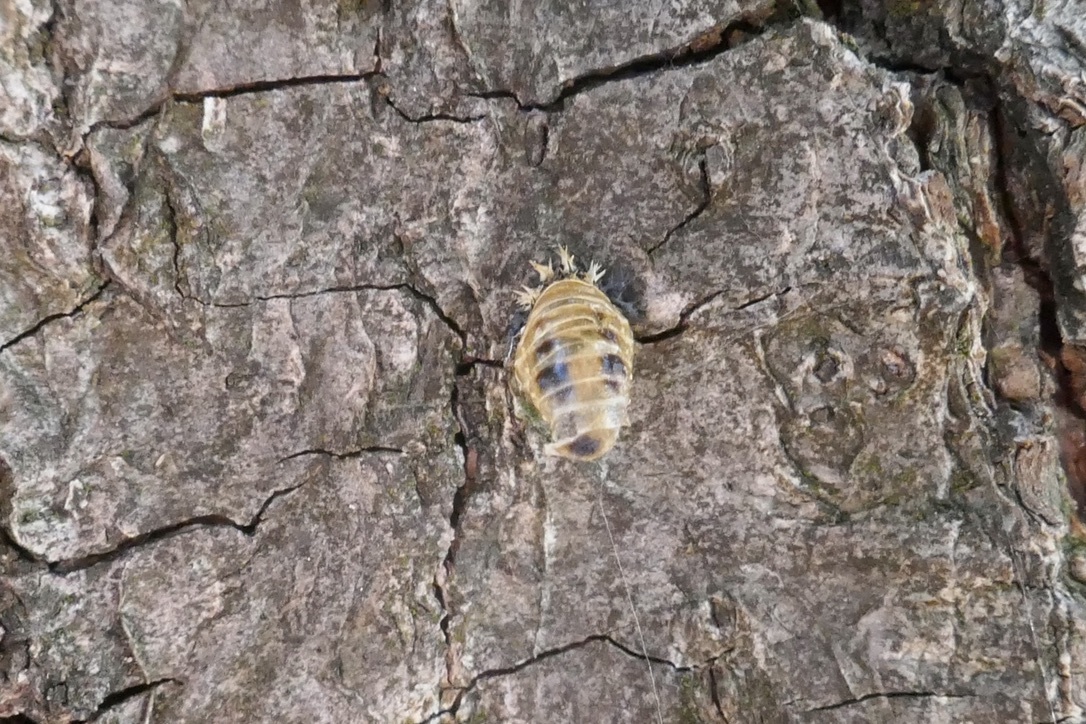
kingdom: Animalia
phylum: Arthropoda
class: Insecta
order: Coleoptera
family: Coccinellidae
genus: Harmonia
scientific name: Harmonia axyridis
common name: Harlequin ladybird
